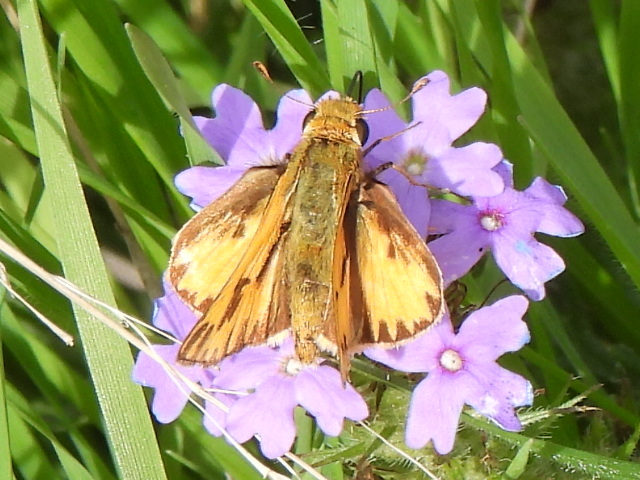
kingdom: Animalia
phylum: Arthropoda
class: Insecta
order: Lepidoptera
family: Hesperiidae
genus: Hylephila
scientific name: Hylephila phyleus
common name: Fiery skipper
